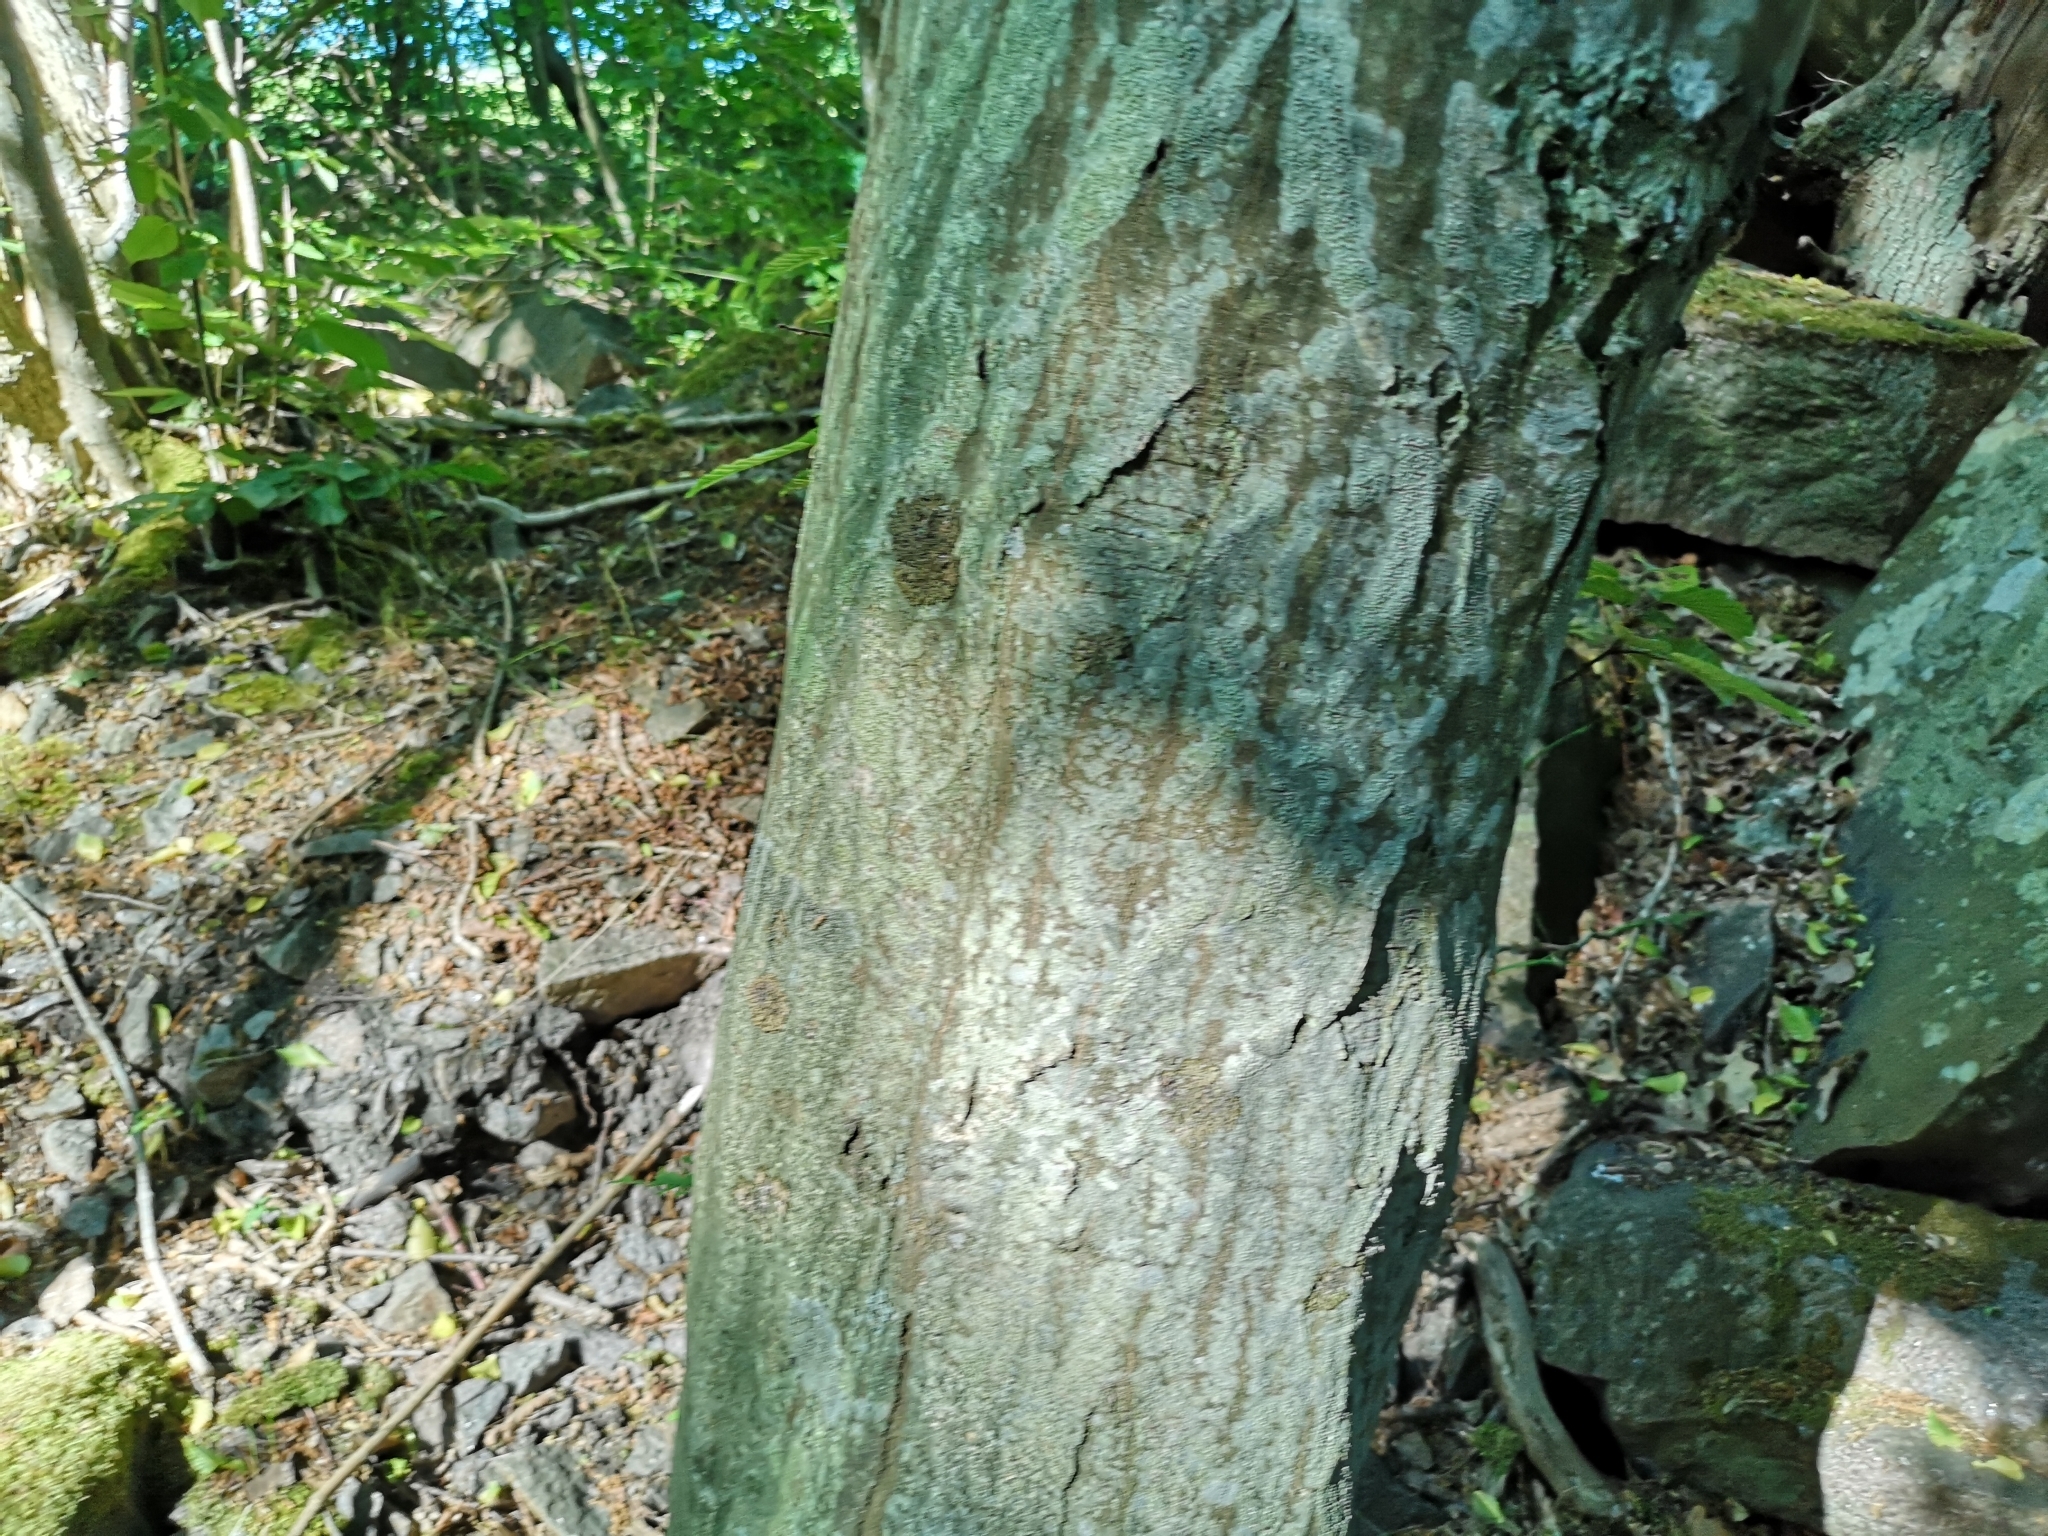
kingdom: Plantae
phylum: Tracheophyta
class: Magnoliopsida
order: Fagales
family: Betulaceae
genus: Carpinus
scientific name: Carpinus betulus
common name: Hornbeam
